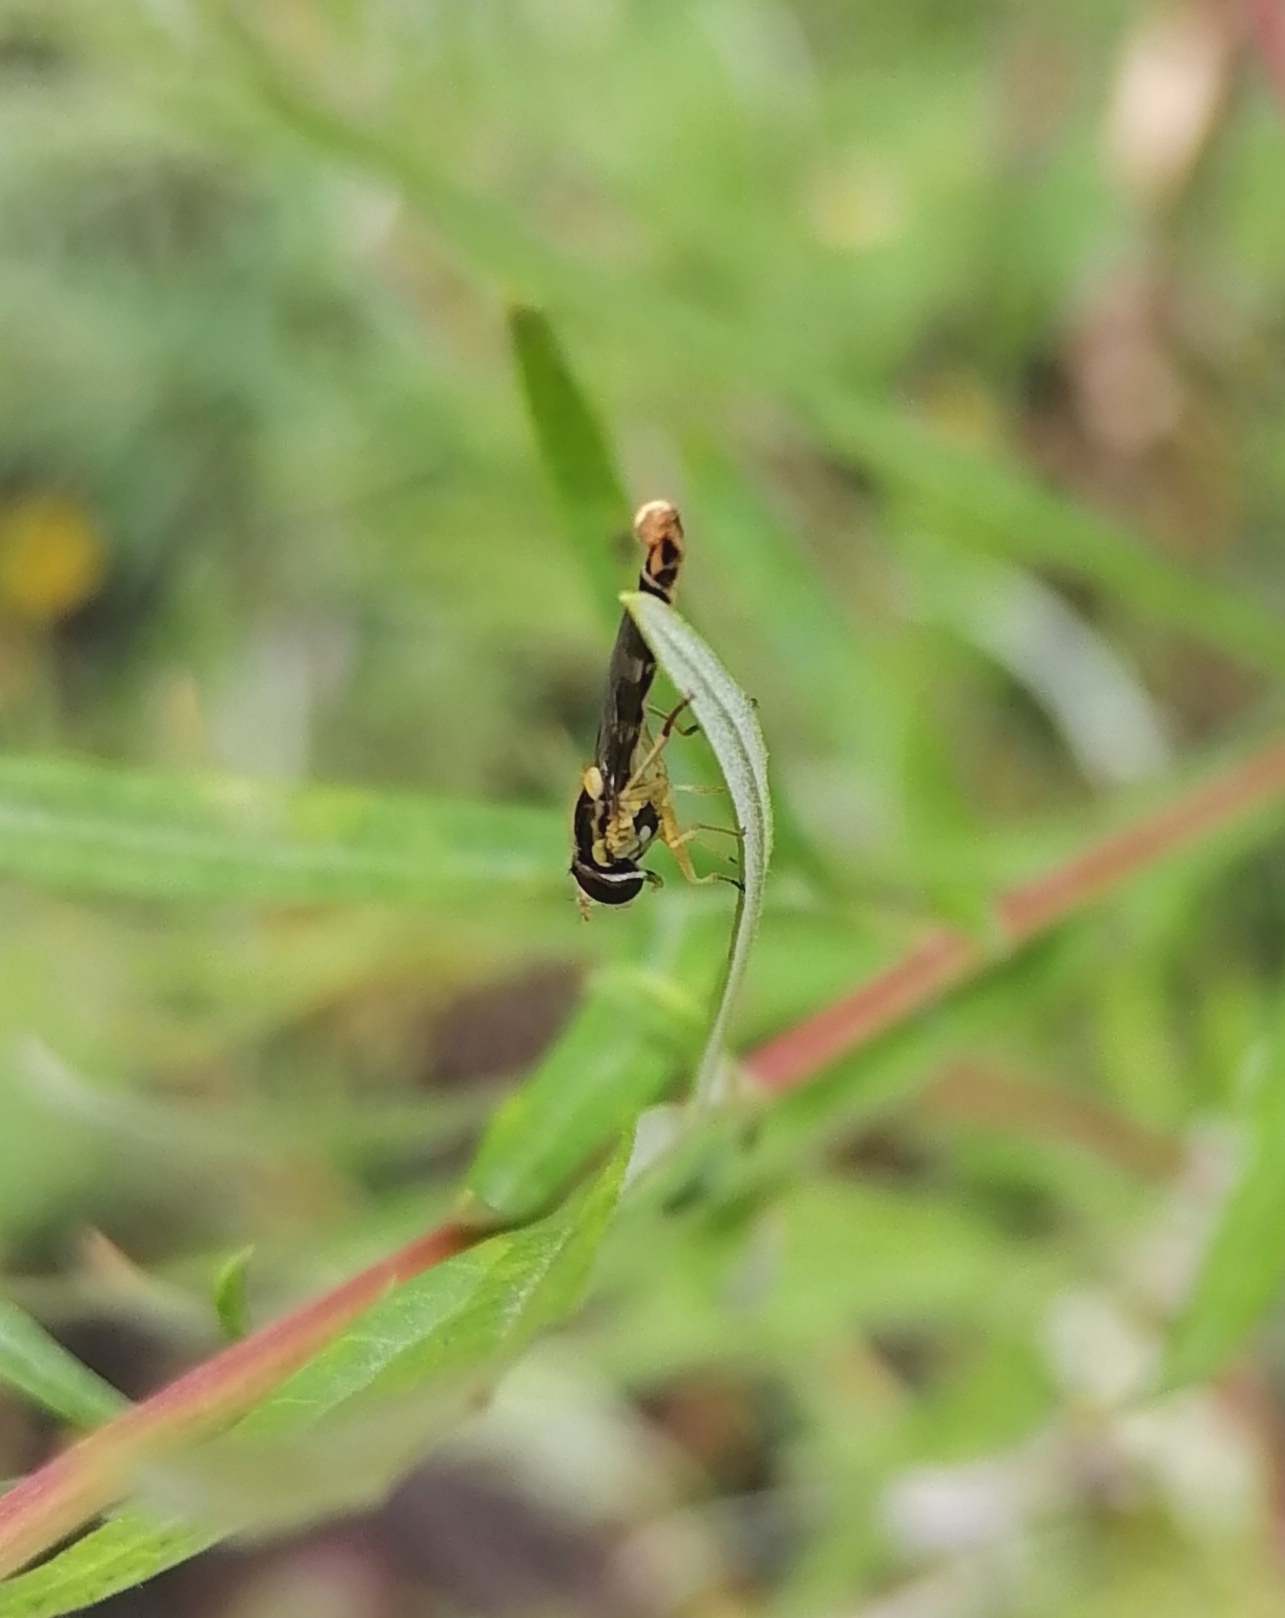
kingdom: Animalia
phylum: Arthropoda
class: Insecta
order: Diptera
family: Syrphidae
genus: Sphaerophoria
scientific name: Sphaerophoria scripta
